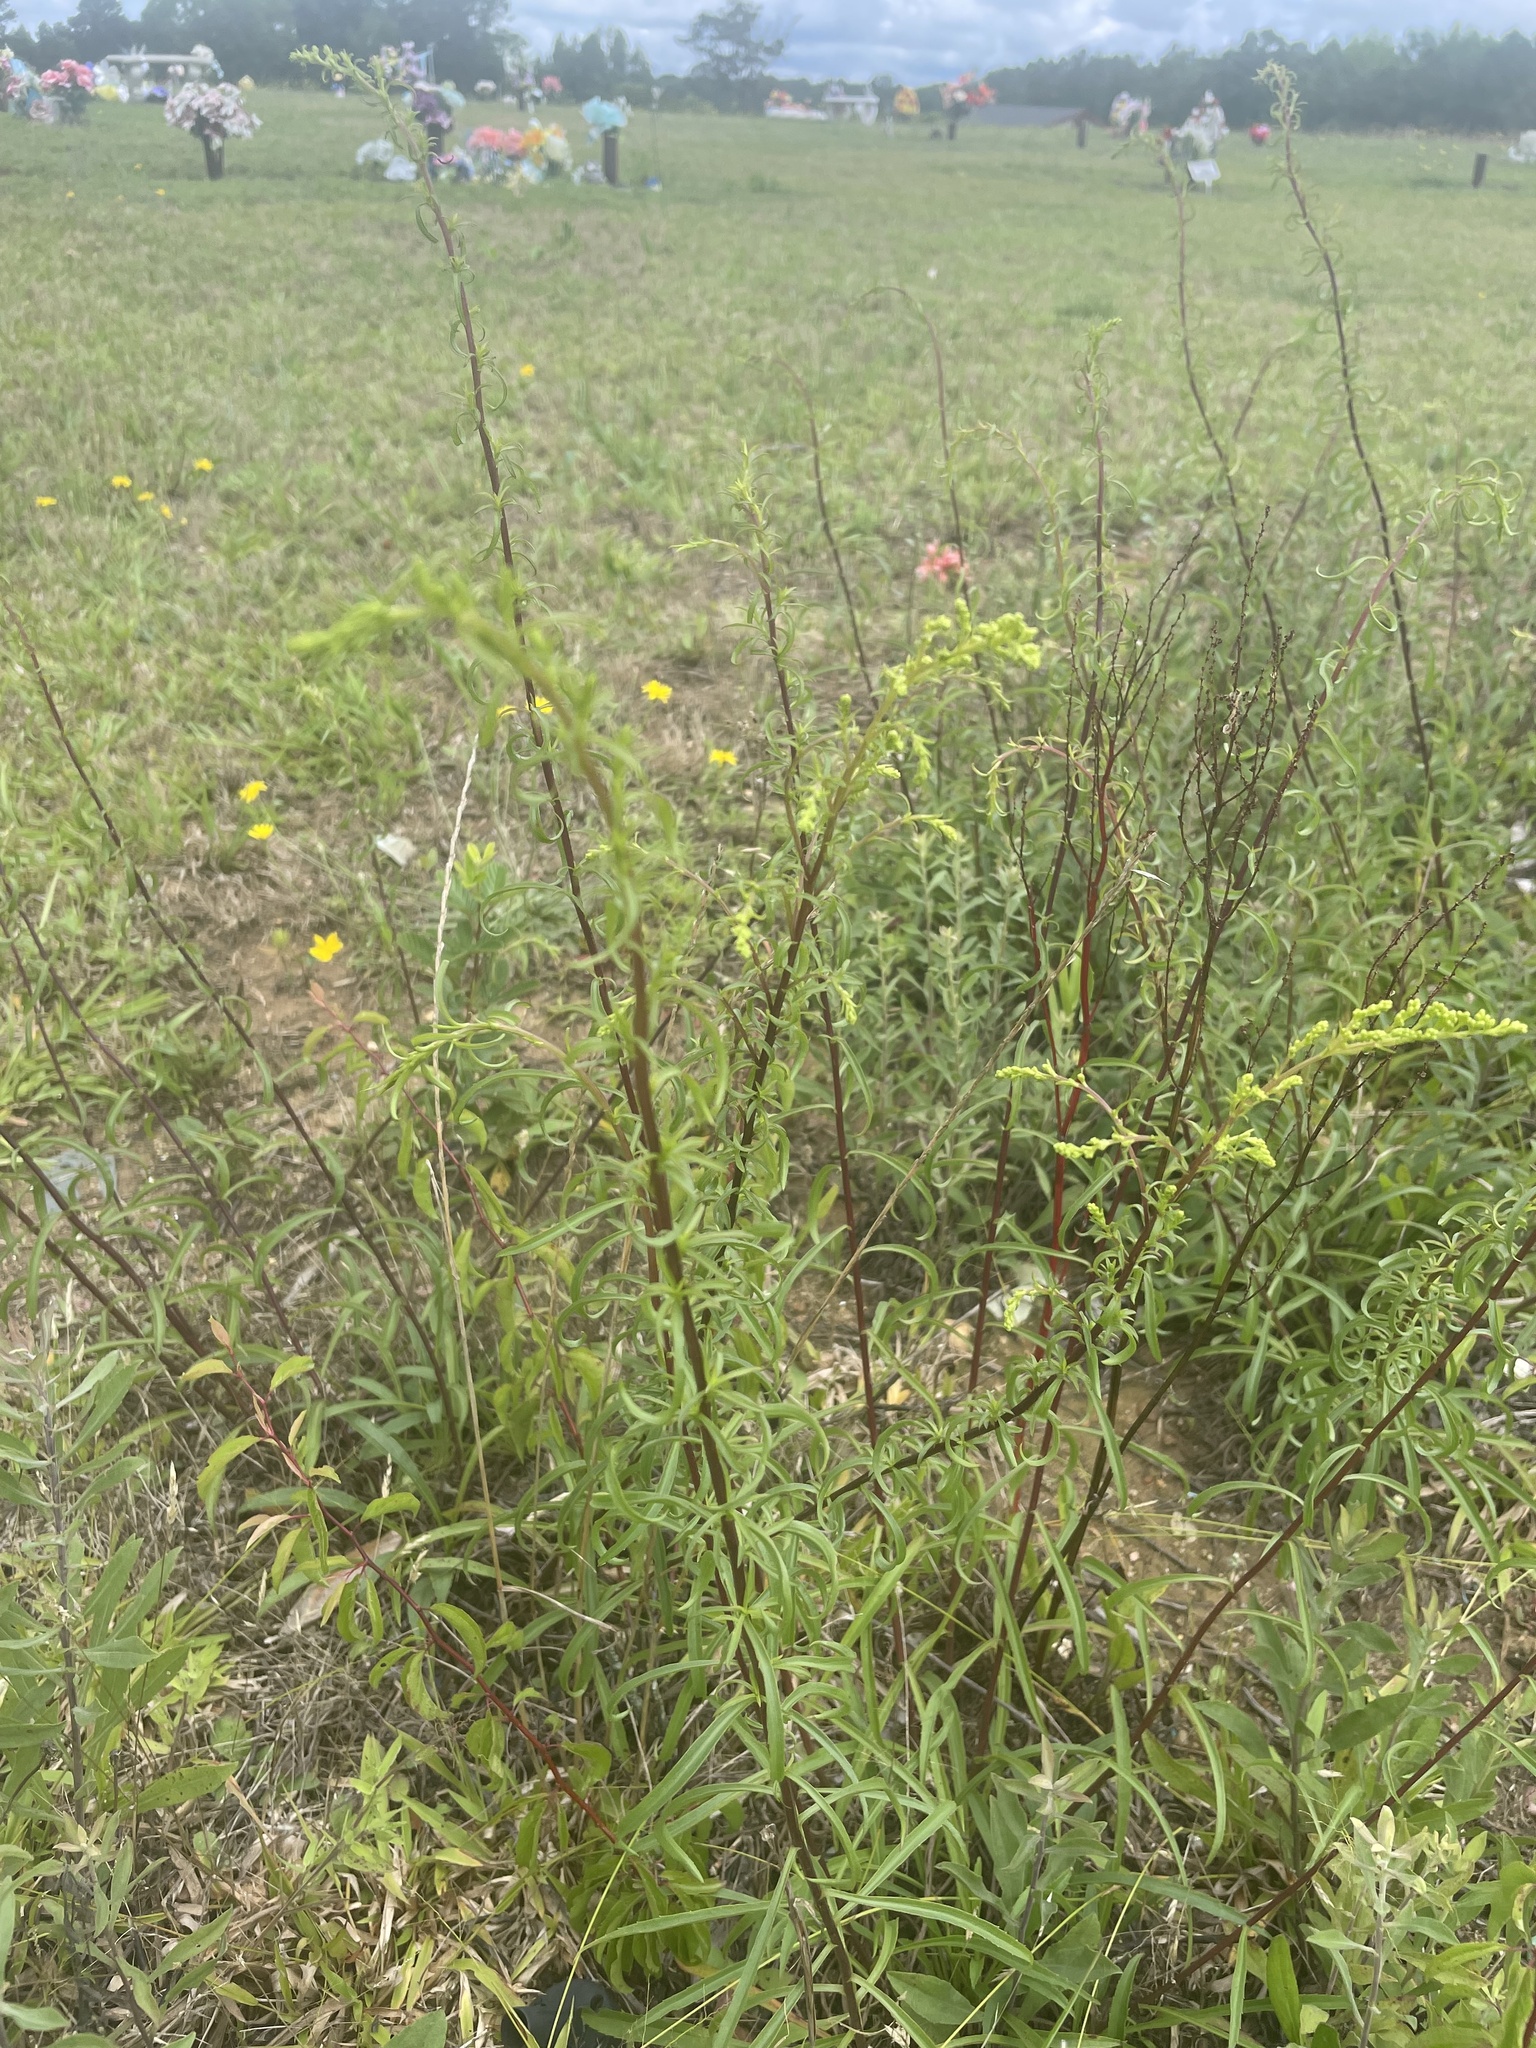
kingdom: Plantae
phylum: Tracheophyta
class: Magnoliopsida
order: Asterales
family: Asteraceae
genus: Solidago
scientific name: Solidago pinetorum
